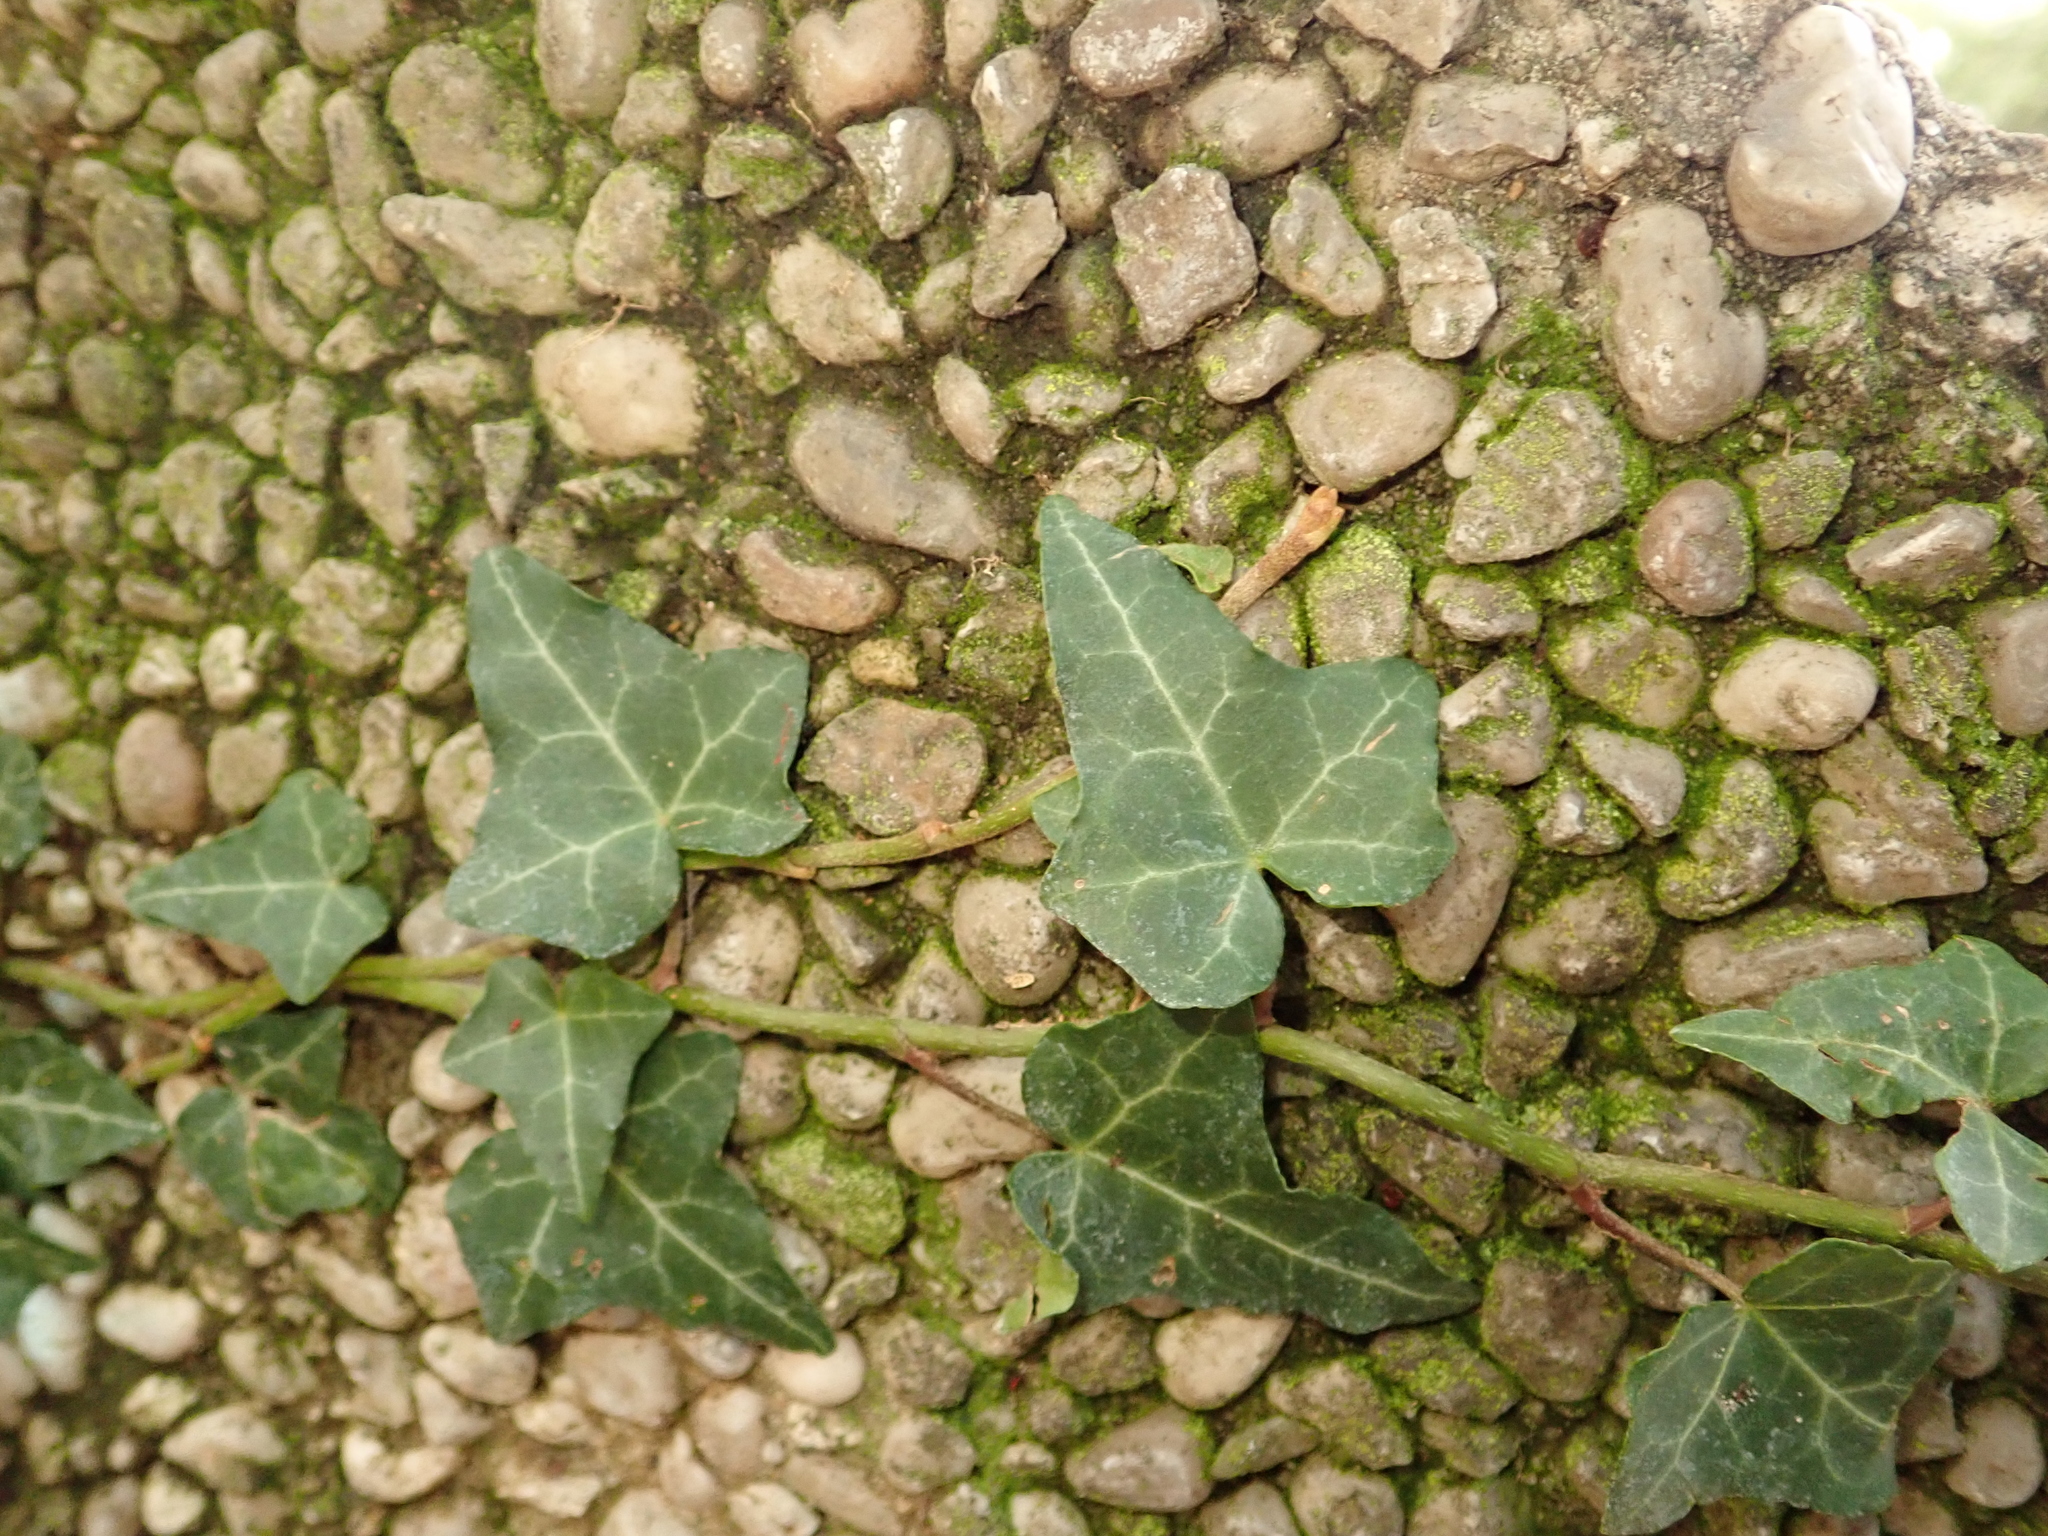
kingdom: Plantae
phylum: Tracheophyta
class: Magnoliopsida
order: Apiales
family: Araliaceae
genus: Hedera
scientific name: Hedera helix
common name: Ivy
